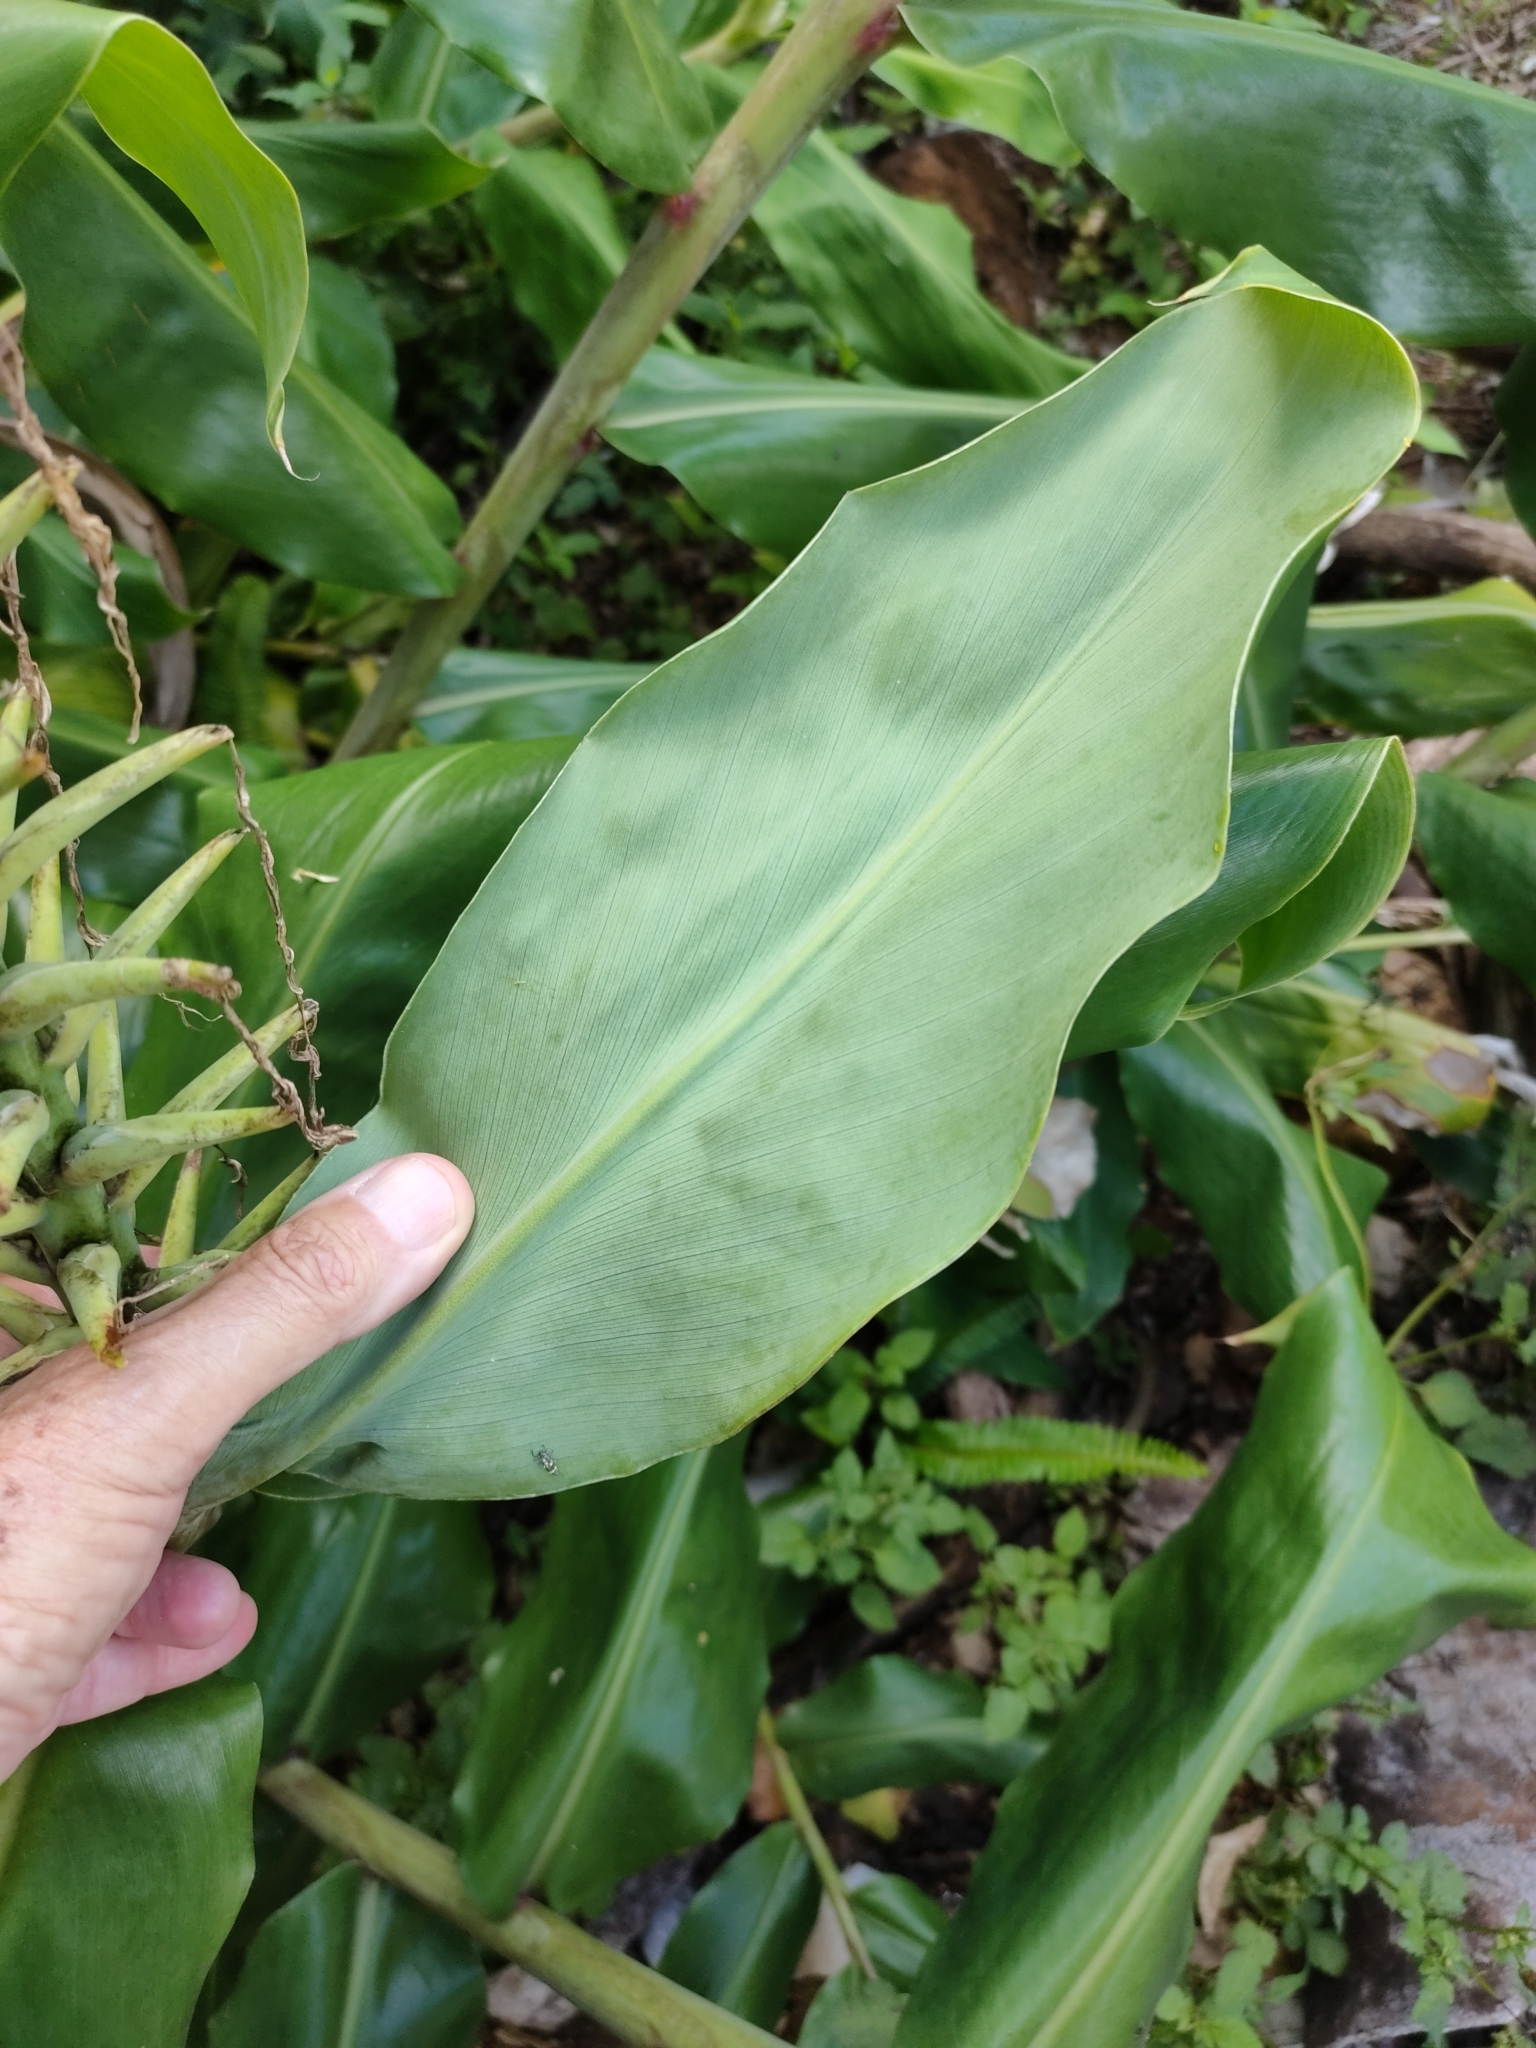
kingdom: Plantae
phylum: Tracheophyta
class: Liliopsida
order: Zingiberales
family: Zingiberaceae
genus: Hedychium
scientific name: Hedychium gardnerianum
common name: Himalayan ginger
